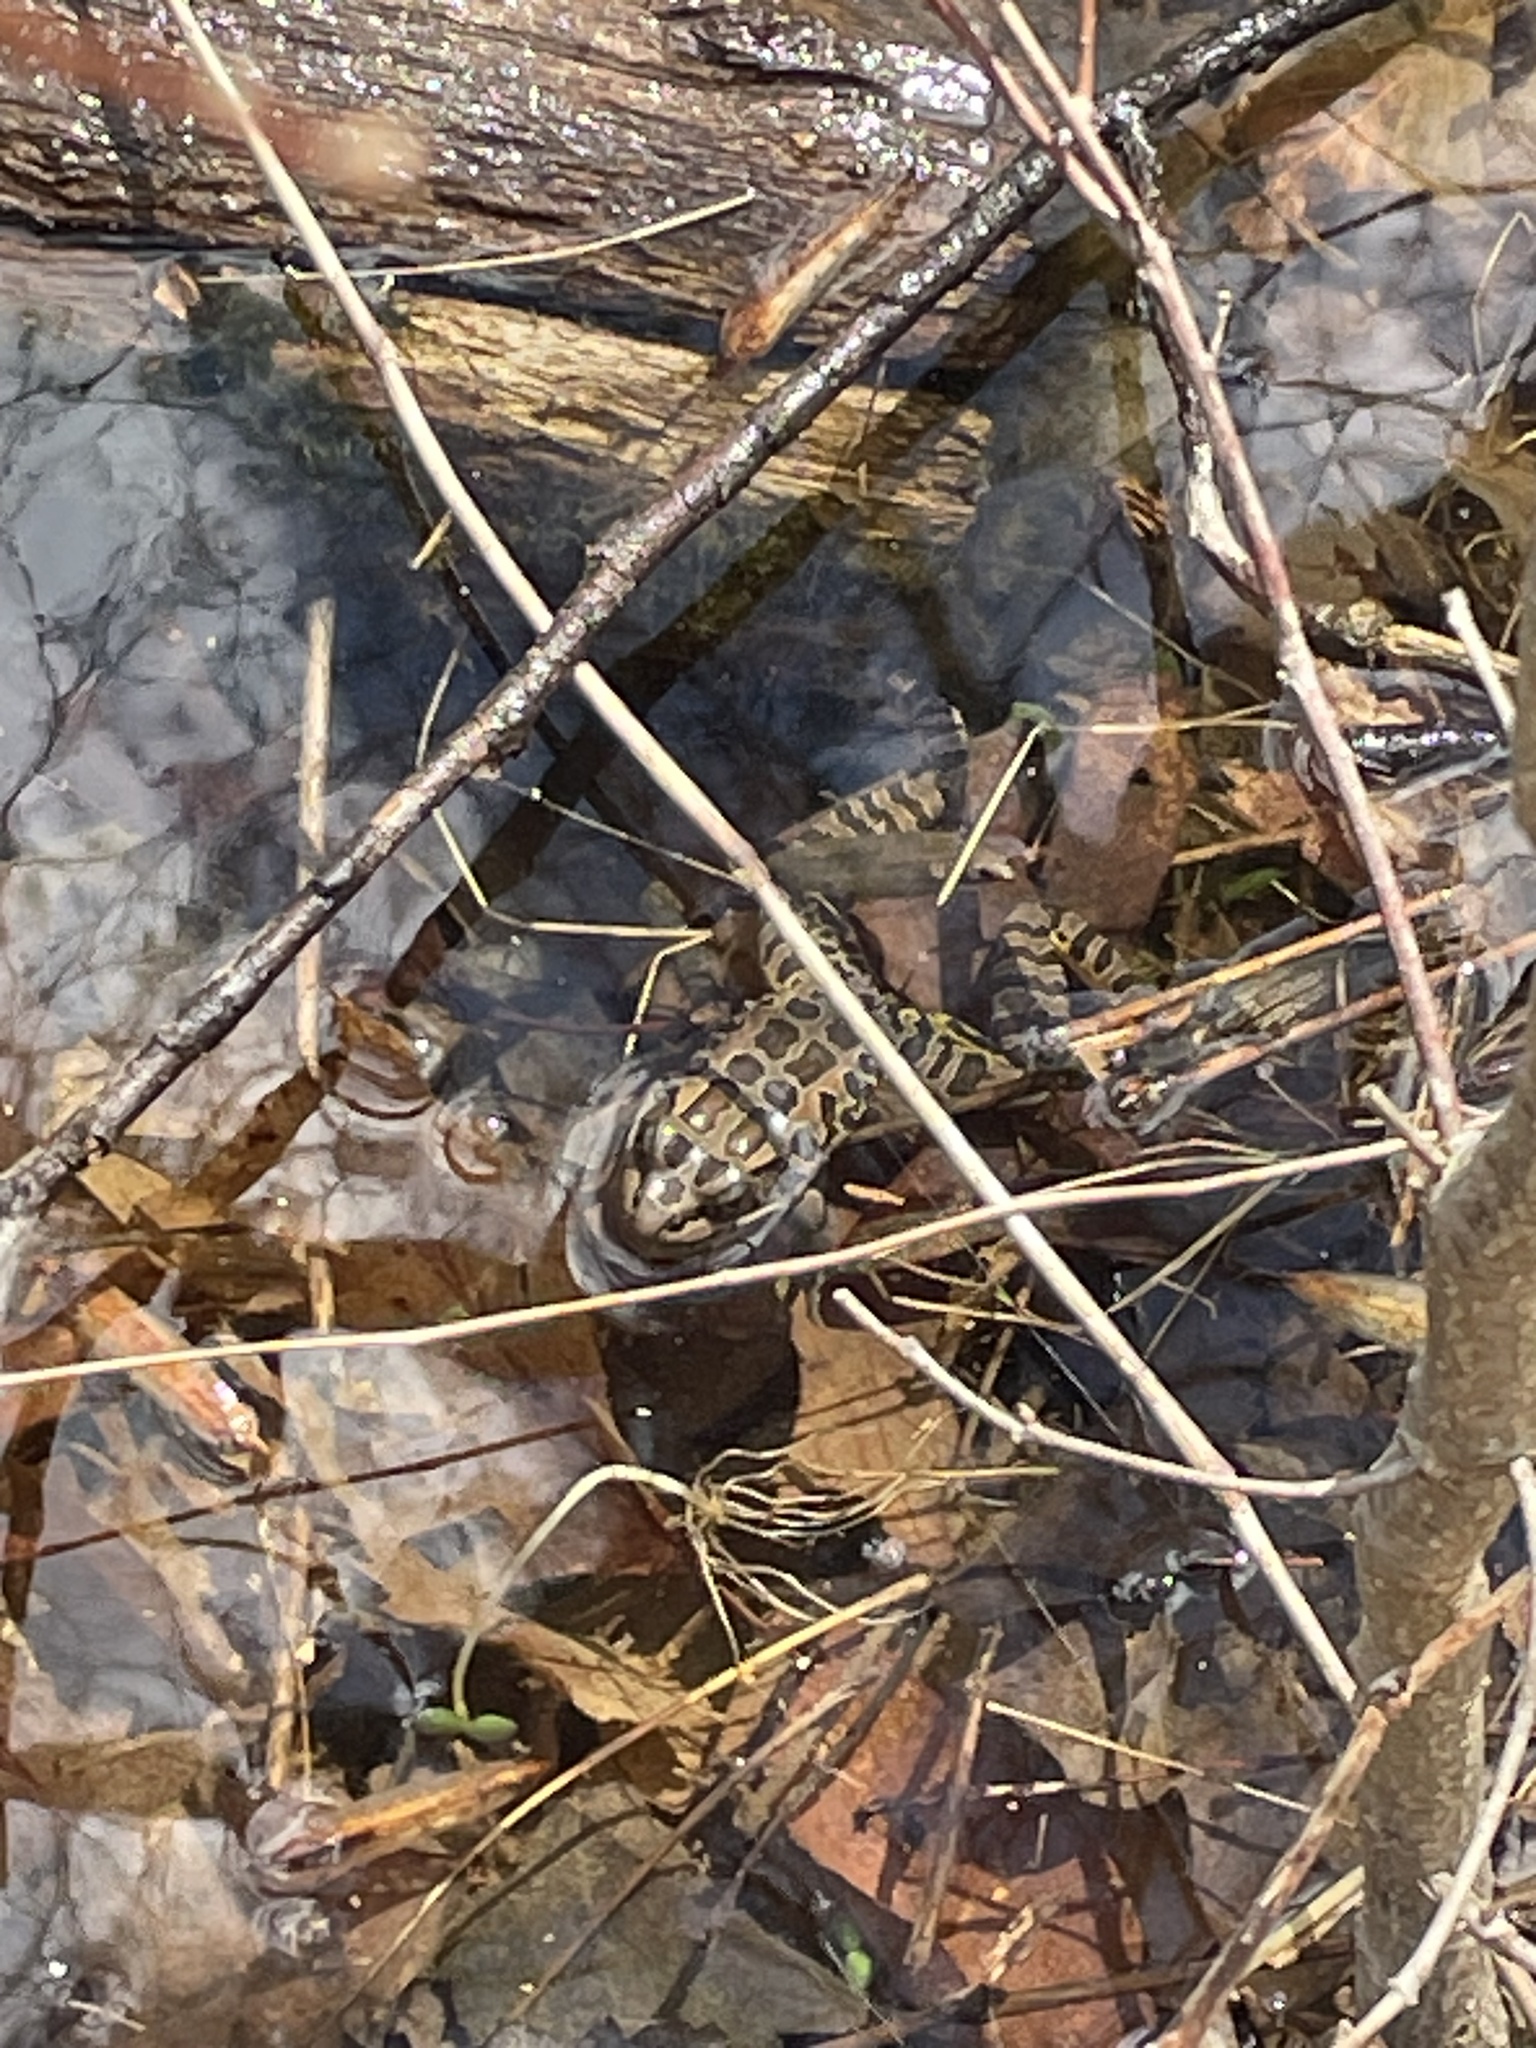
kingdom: Animalia
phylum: Chordata
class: Amphibia
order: Anura
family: Ranidae
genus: Lithobates
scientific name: Lithobates palustris
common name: Pickerel frog
